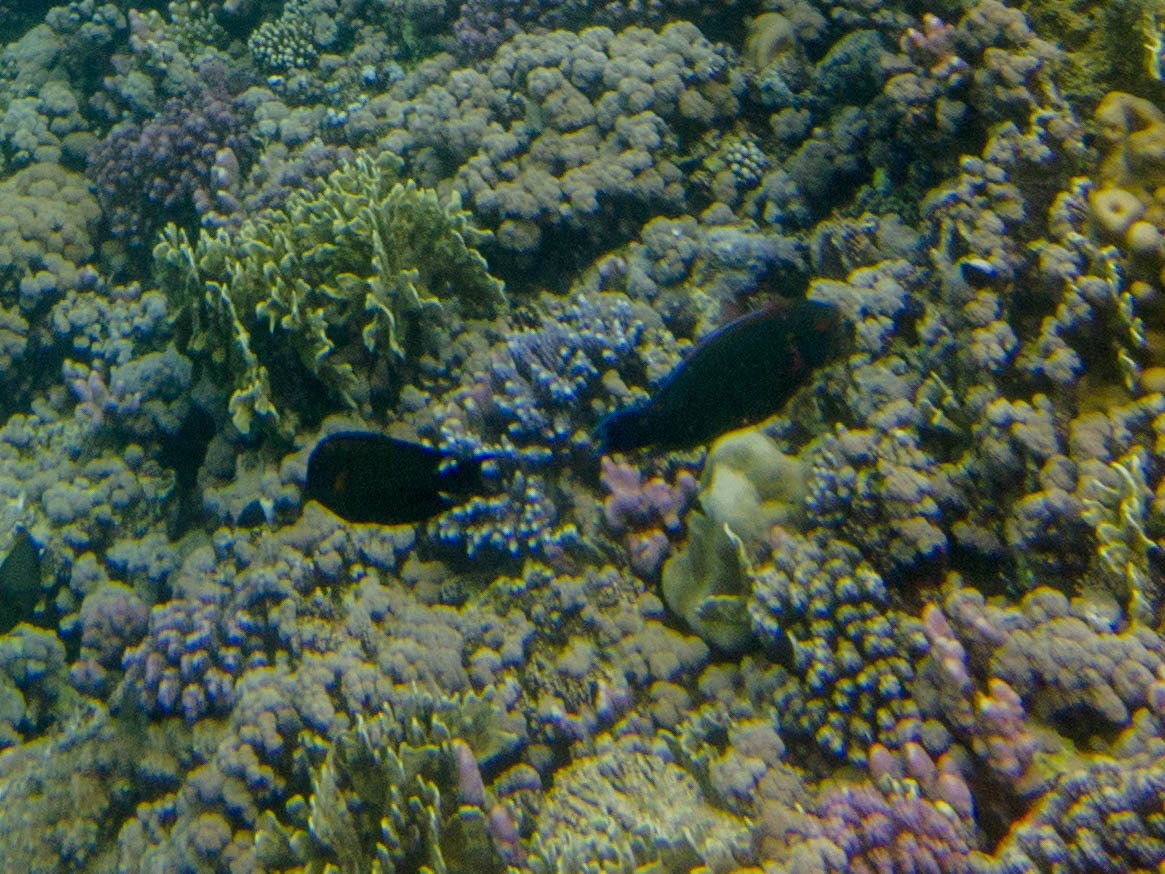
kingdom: Animalia
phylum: Chordata
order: Perciformes
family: Acanthuridae
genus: Ctenochaetus
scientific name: Ctenochaetus striatus
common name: Bristle-toothed surgeonfish
